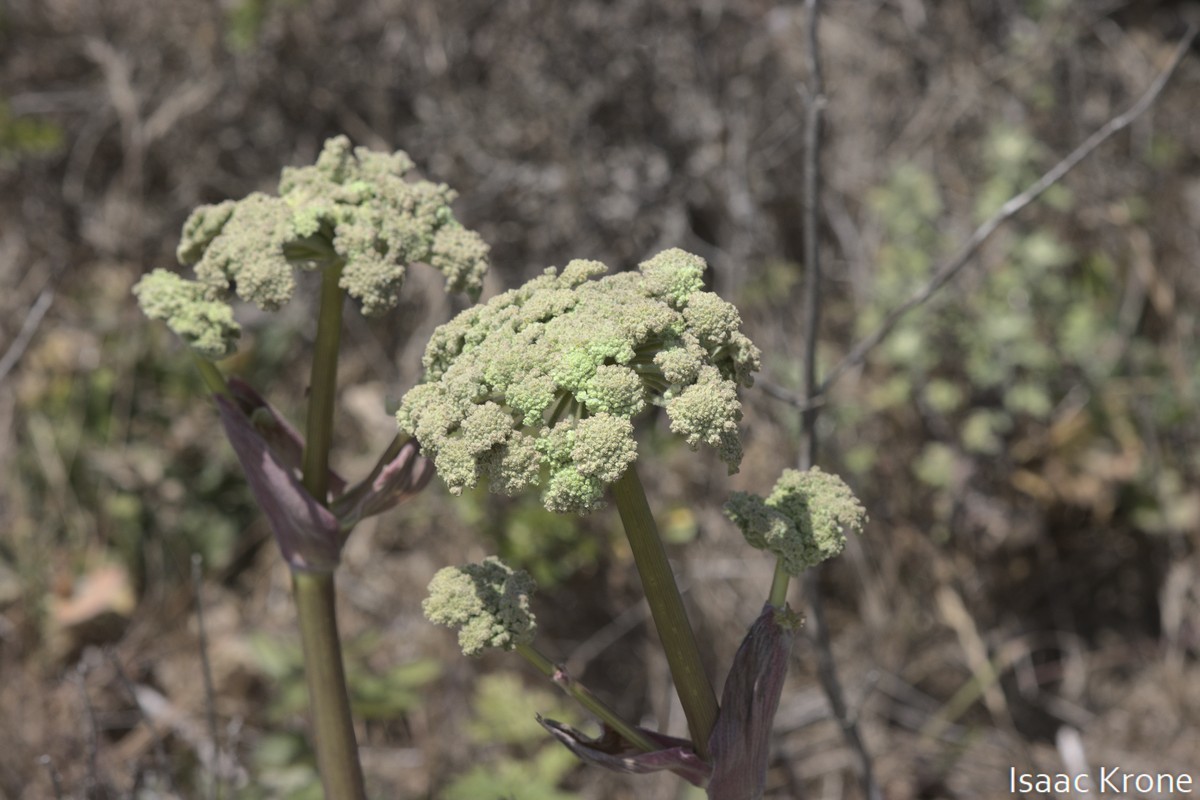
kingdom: Plantae
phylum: Tracheophyta
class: Magnoliopsida
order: Apiales
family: Apiaceae
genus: Angelica
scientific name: Angelica hendersonii
